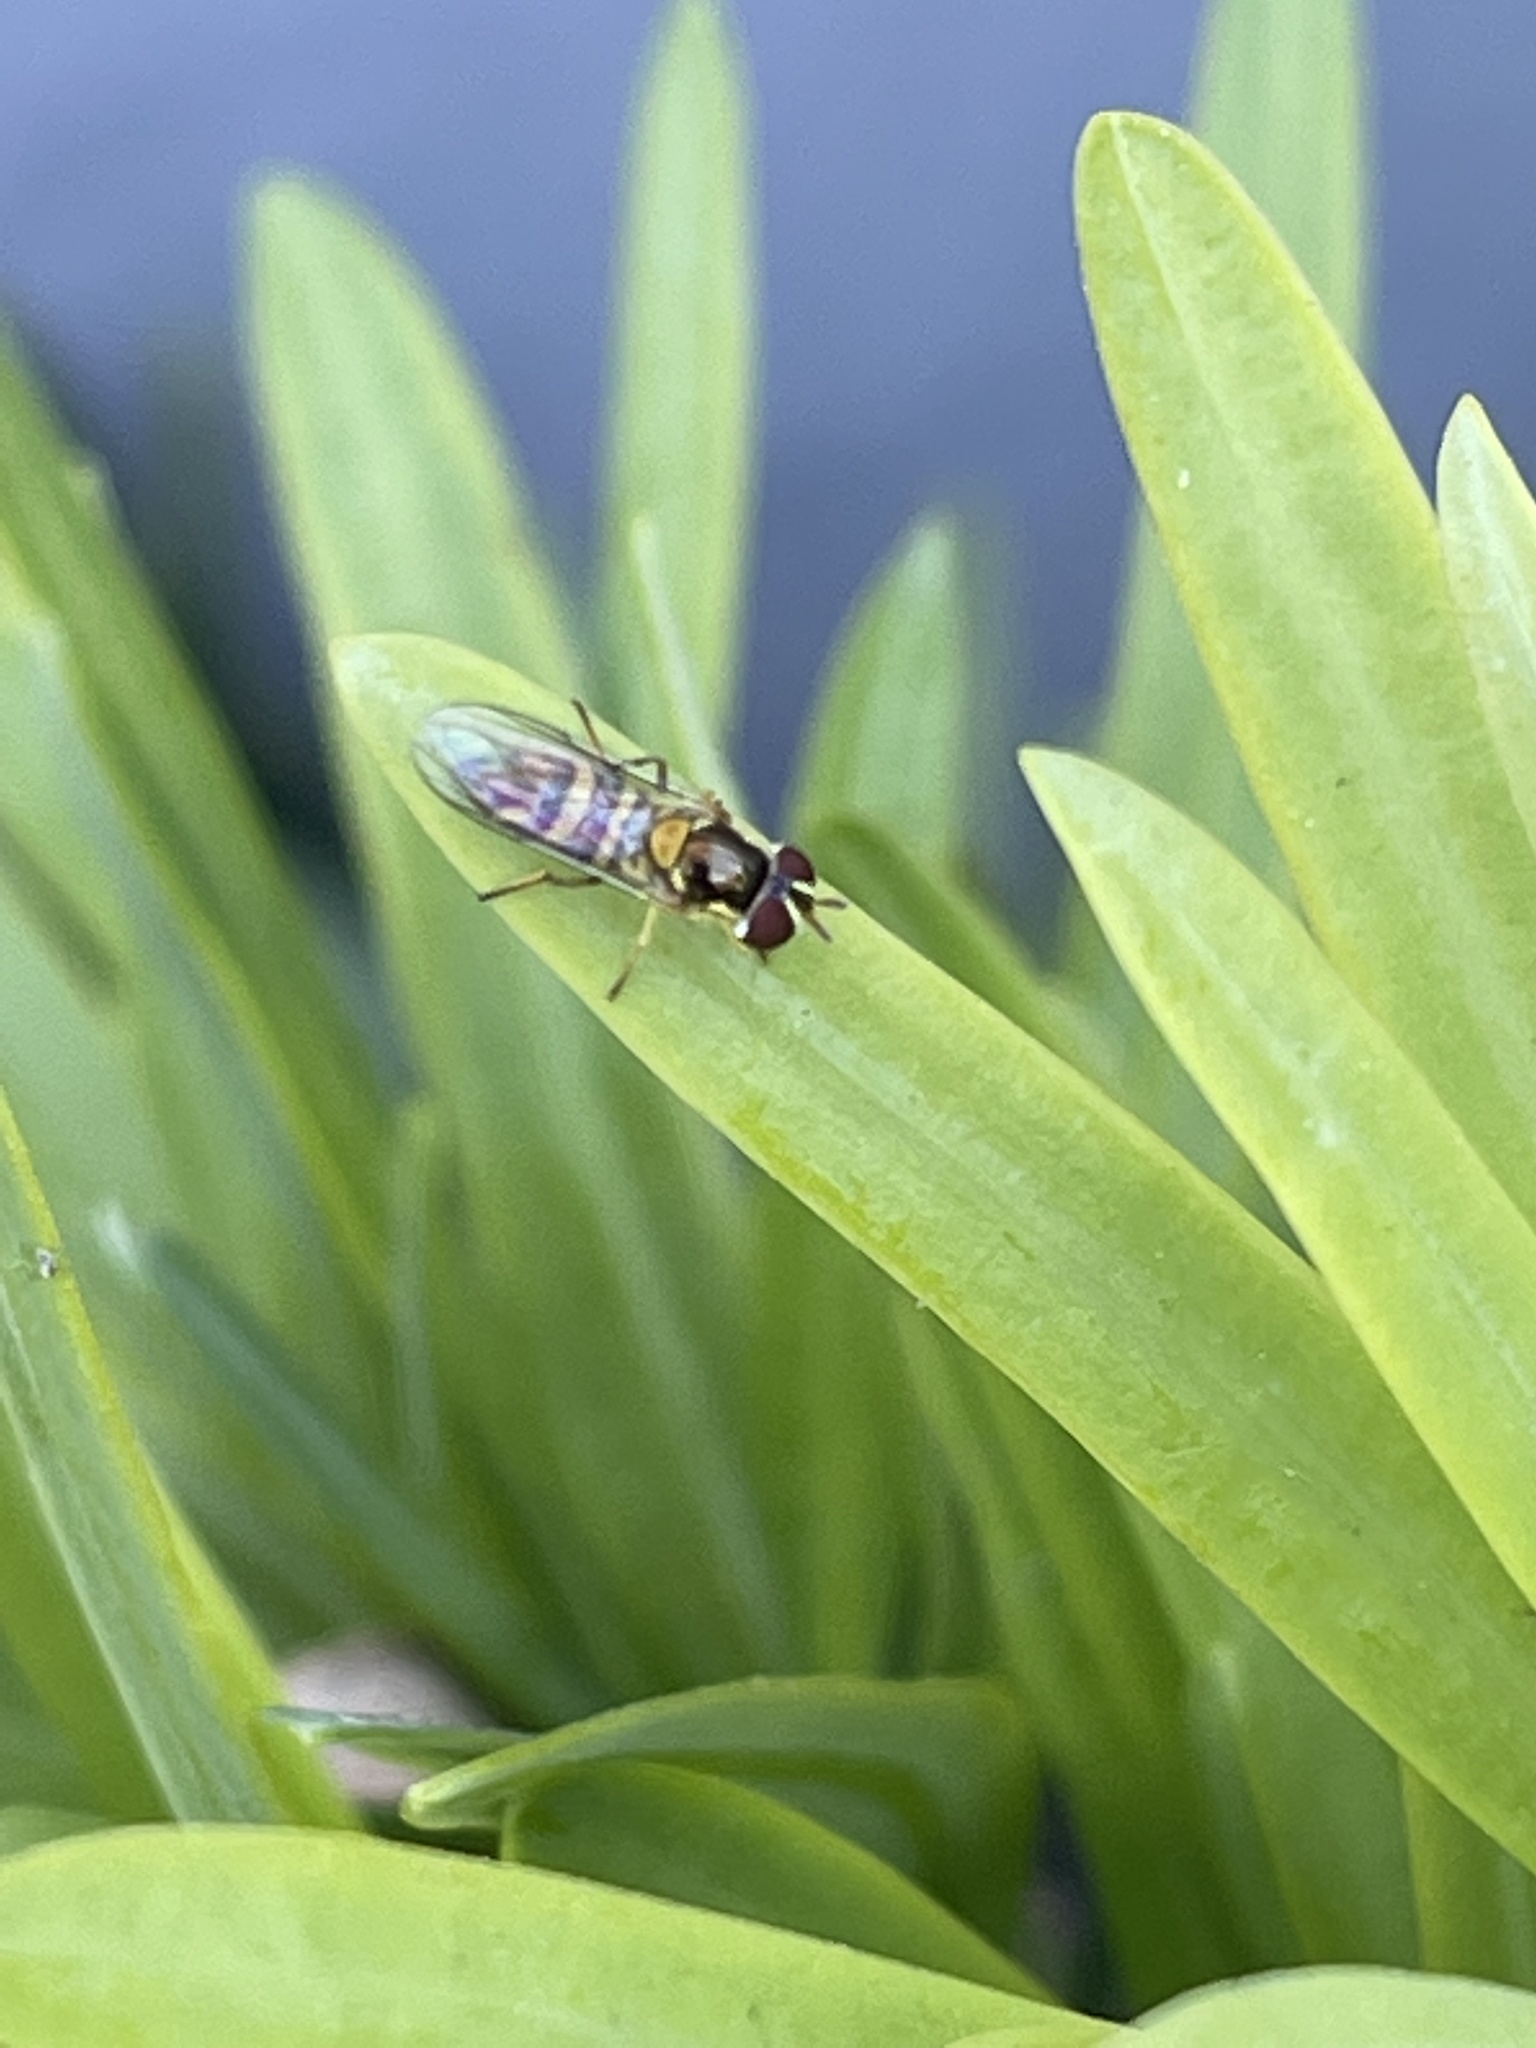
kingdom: Animalia
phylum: Arthropoda
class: Insecta
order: Diptera
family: Syrphidae
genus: Allograpta
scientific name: Allograpta obliqua
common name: Common oblique syrphid
